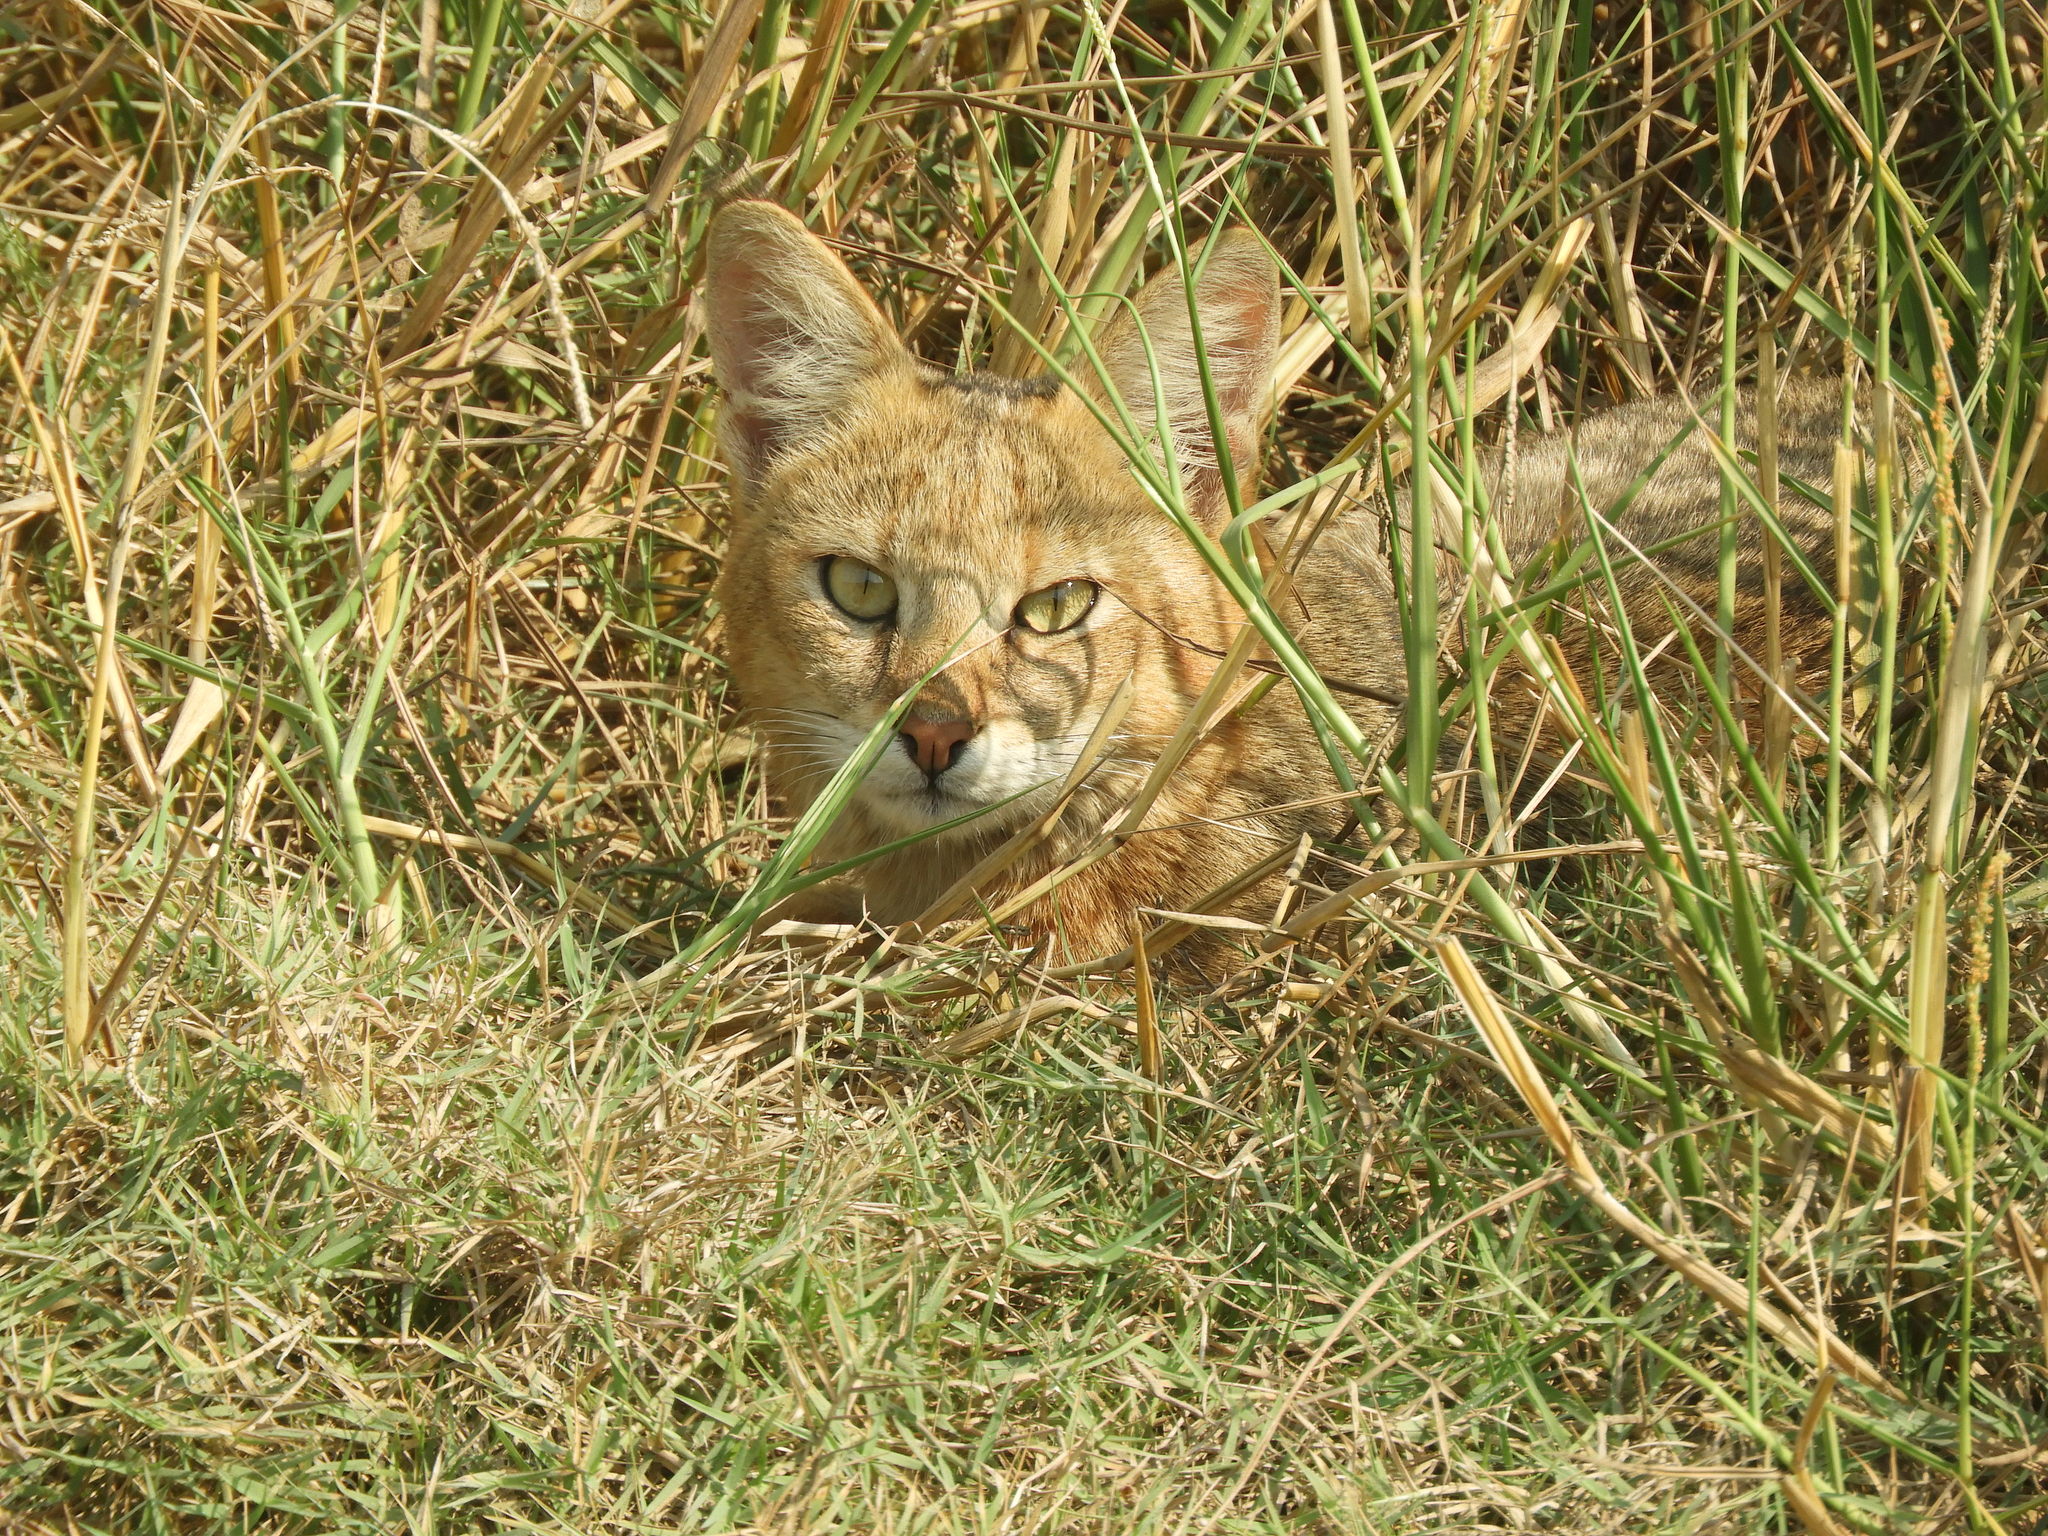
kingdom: Animalia
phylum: Chordata
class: Mammalia
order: Carnivora
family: Felidae
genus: Felis
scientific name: Felis chaus
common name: Jungle cat
